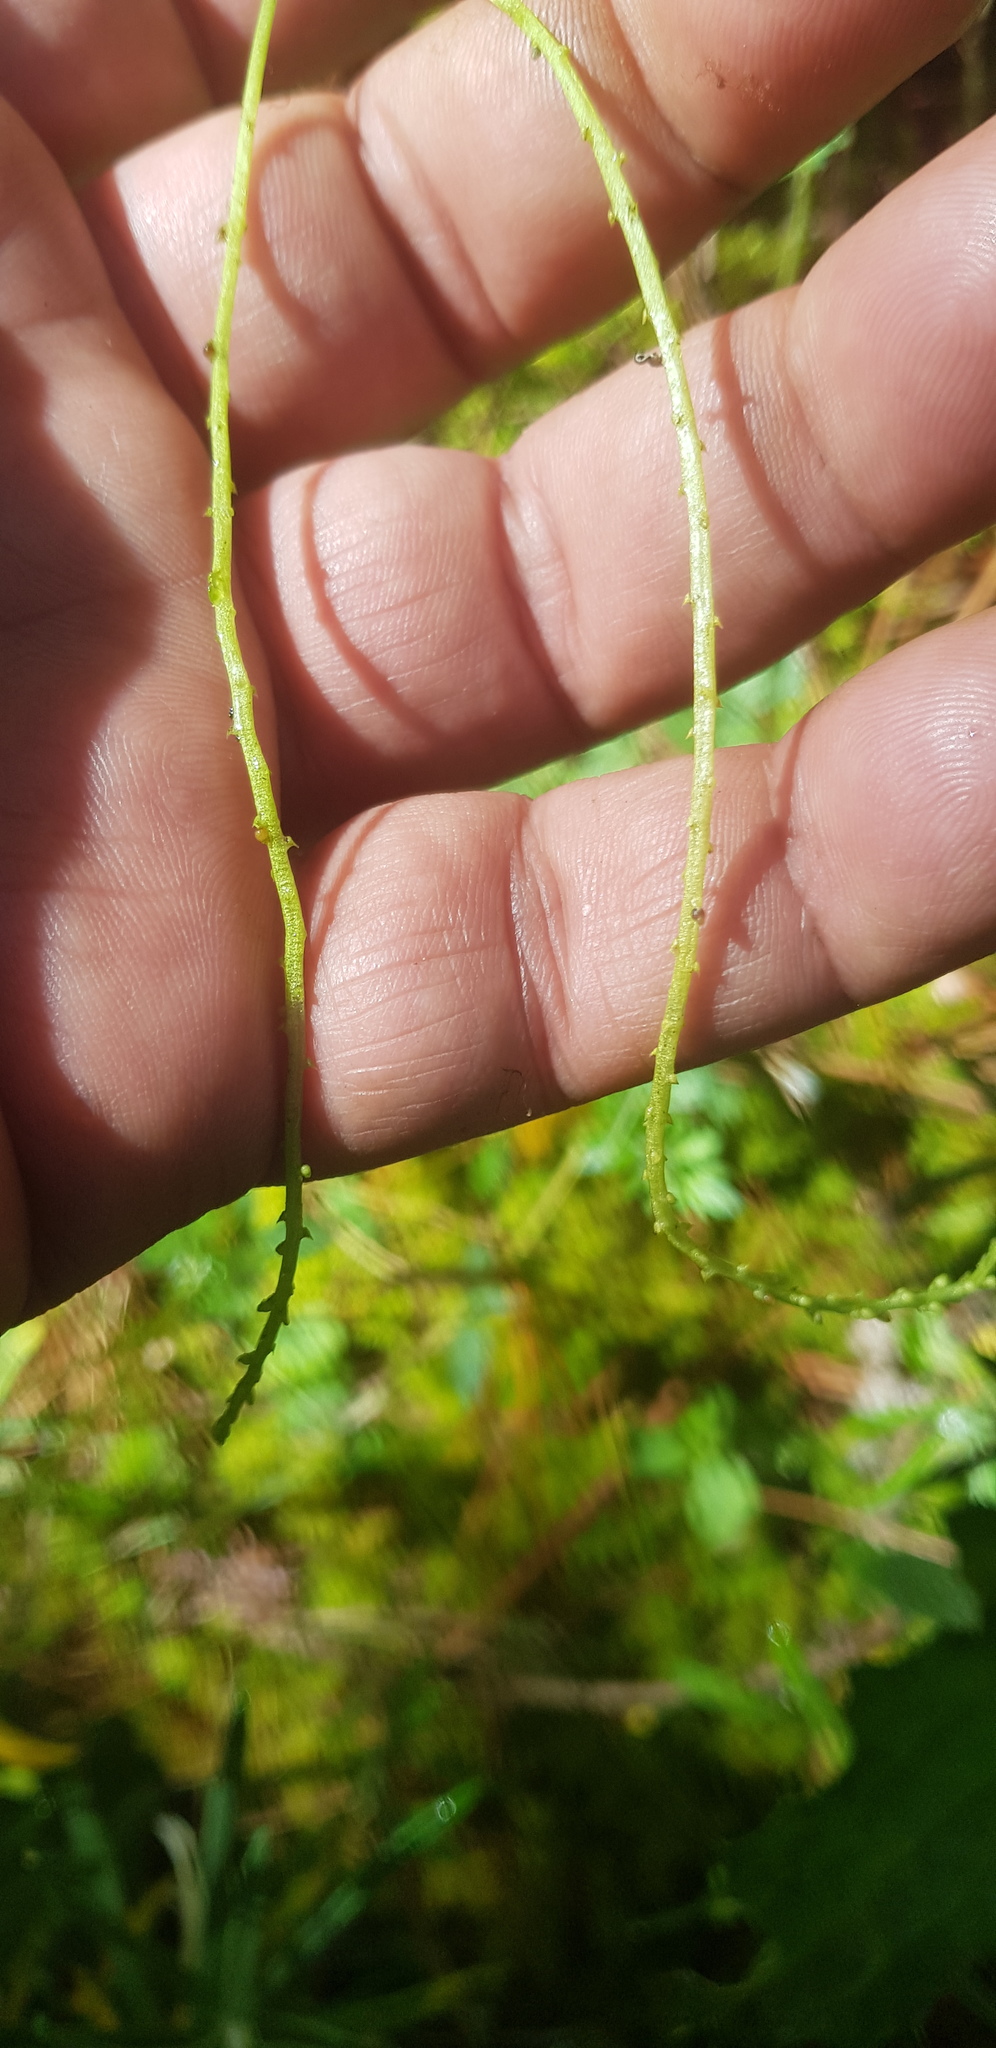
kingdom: Plantae
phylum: Tracheophyta
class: Magnoliopsida
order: Piperales
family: Piperaceae
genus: Peperomia
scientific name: Peperomia bracteata
